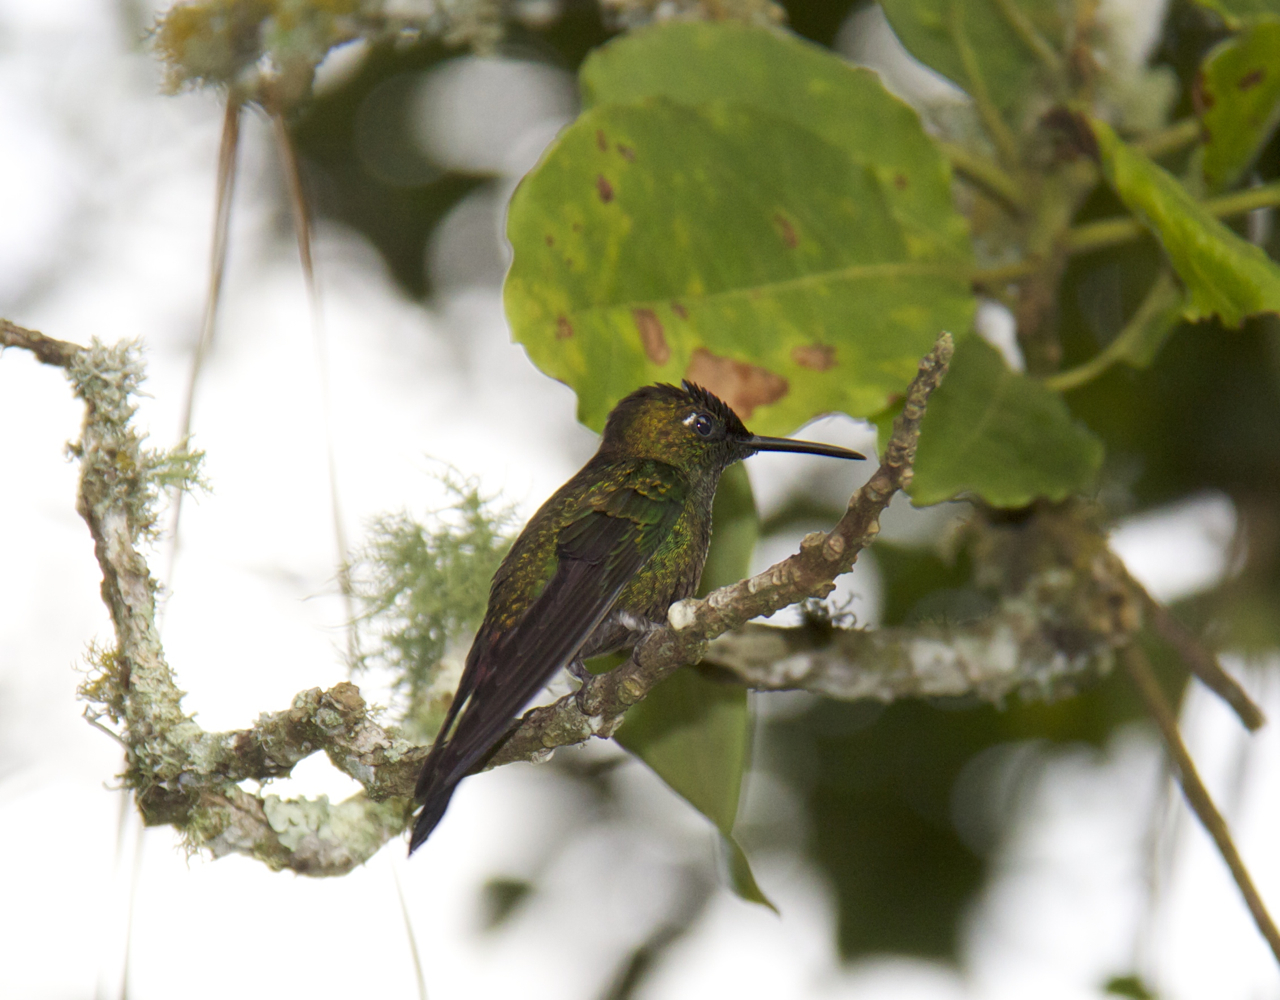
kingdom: Animalia
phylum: Chordata
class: Aves
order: Apodiformes
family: Trochilidae
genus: Heliodoxa
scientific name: Heliodoxa leadbeateri
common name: Violet-fronted brilliant
